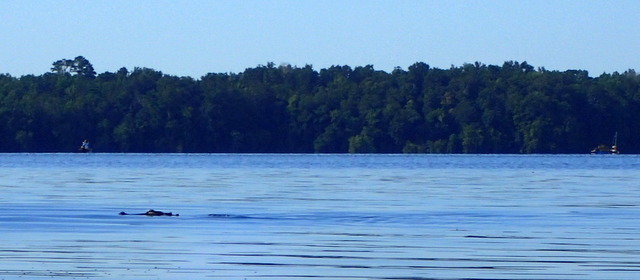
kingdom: Animalia
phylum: Chordata
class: Crocodylia
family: Alligatoridae
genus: Alligator
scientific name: Alligator mississippiensis
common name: American alligator
